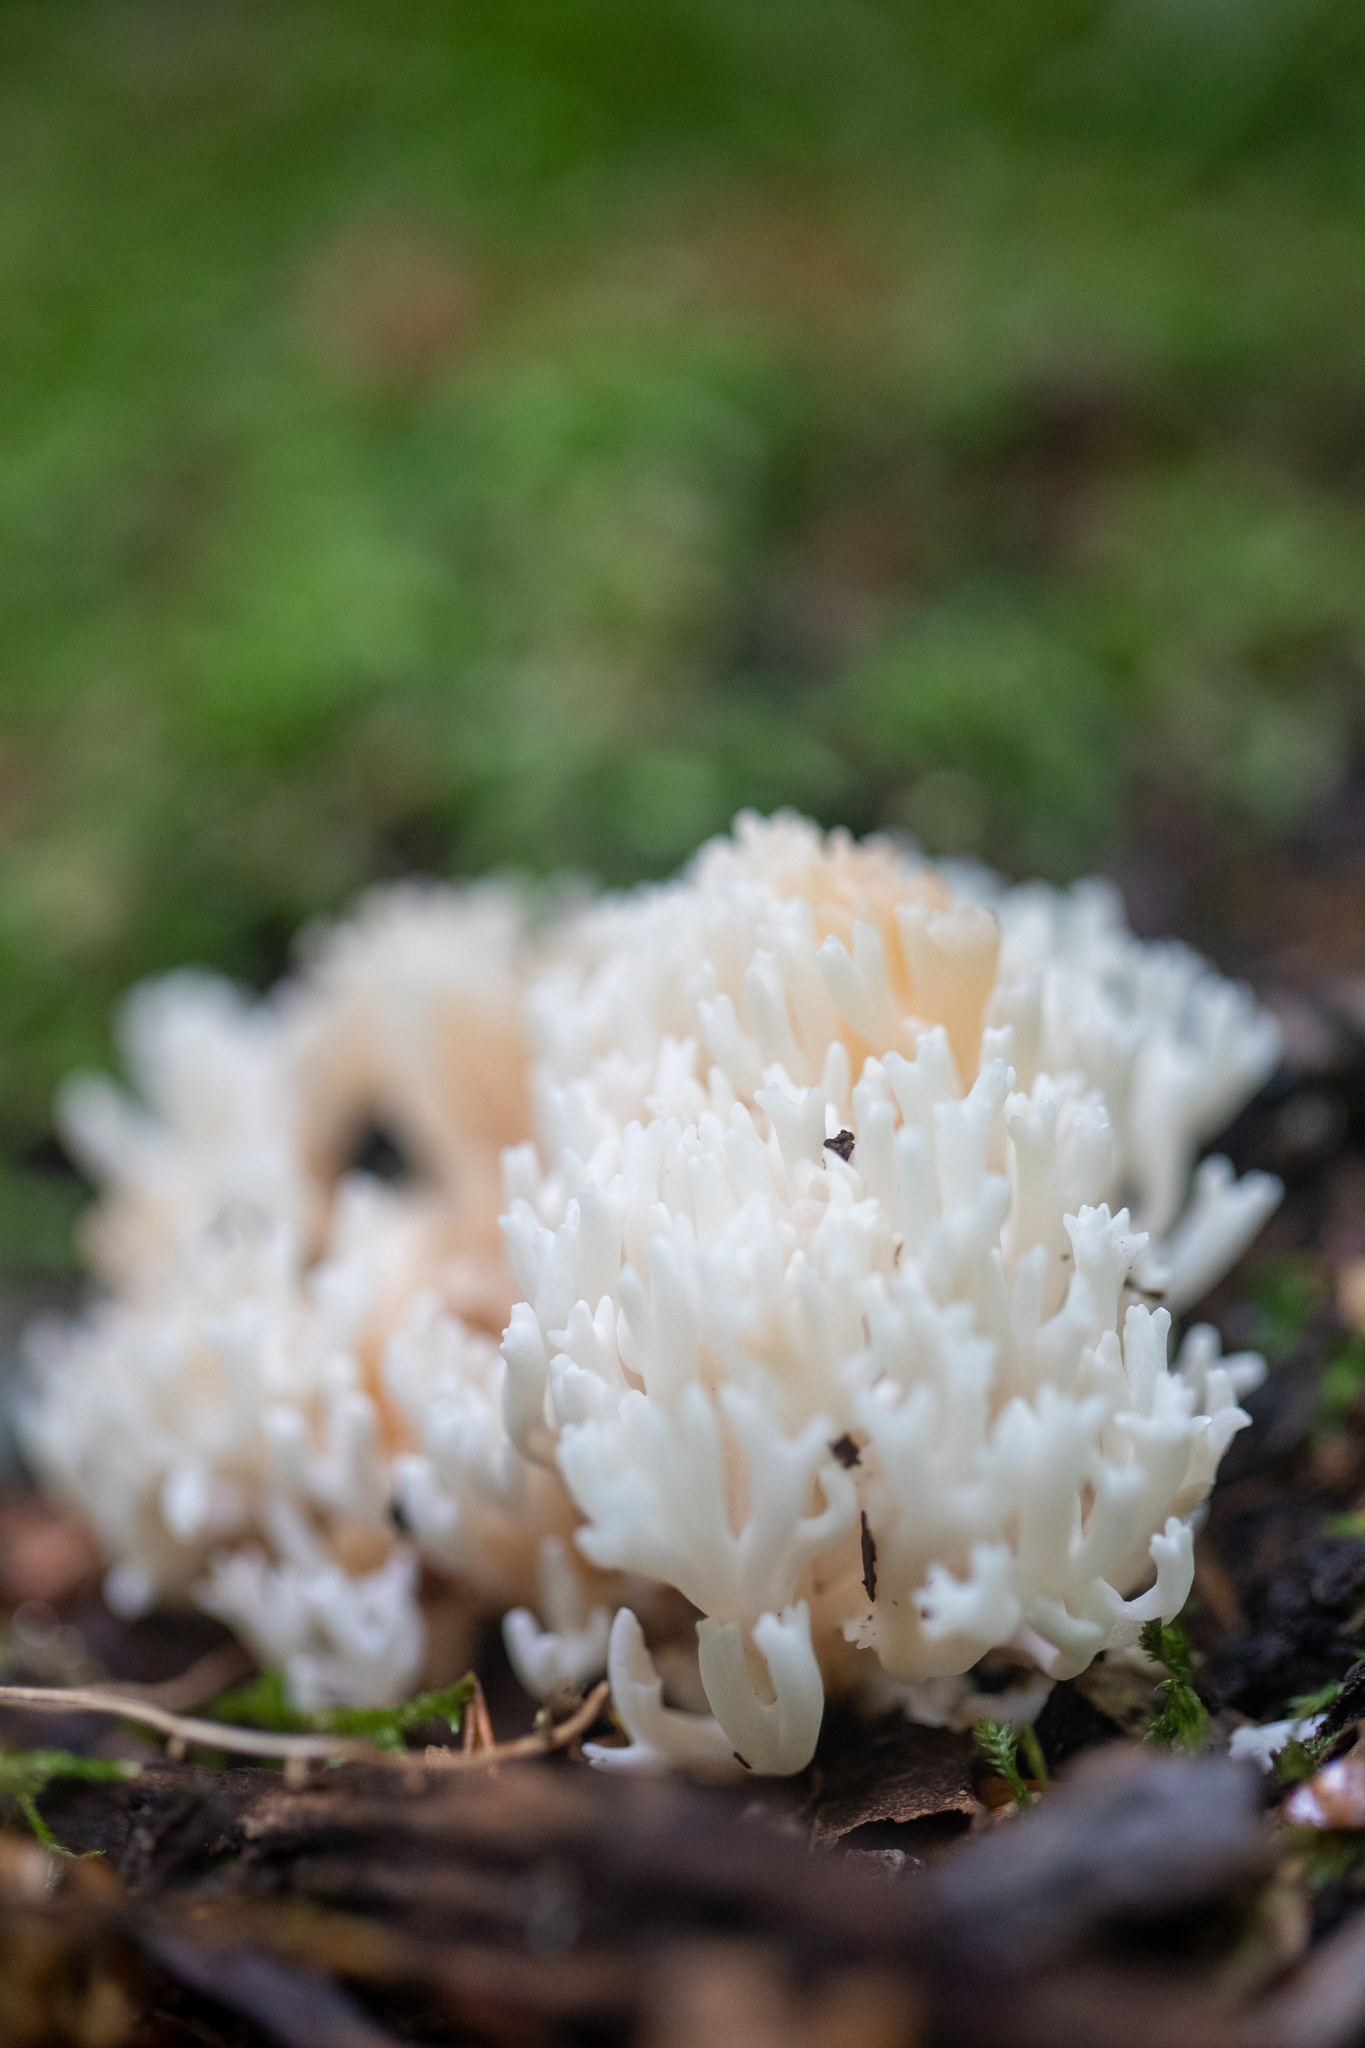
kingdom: Fungi
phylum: Basidiomycota
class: Agaricomycetes
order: Agaricales
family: Clavariaceae
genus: Ramariopsis
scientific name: Ramariopsis kunzei
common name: Ivory coral
